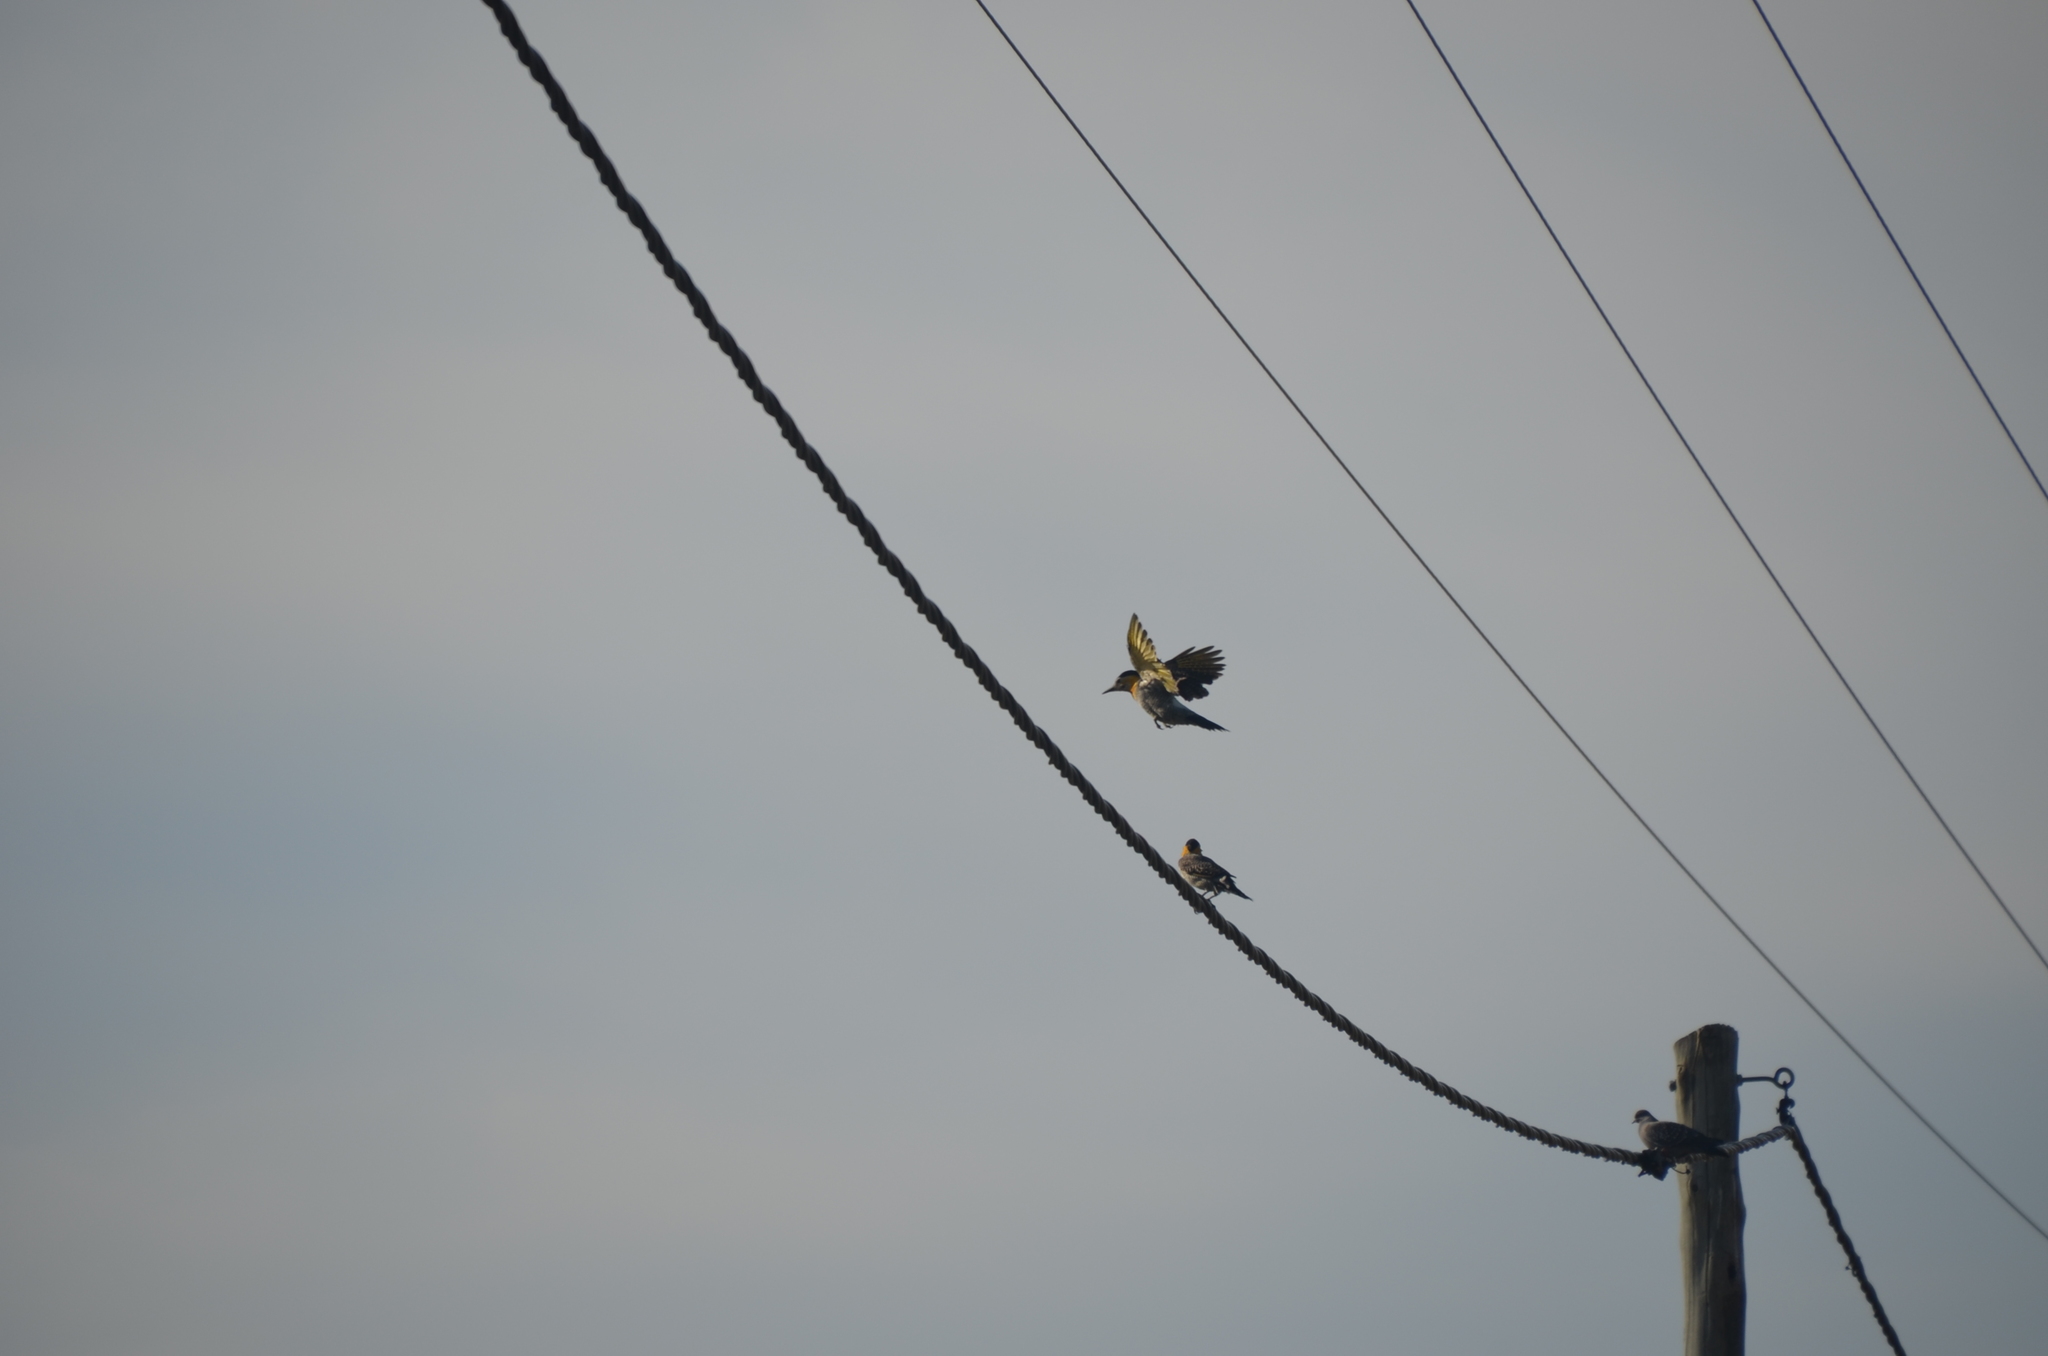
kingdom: Animalia
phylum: Chordata
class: Aves
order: Piciformes
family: Picidae
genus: Colaptes
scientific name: Colaptes campestris
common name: Campo flicker
